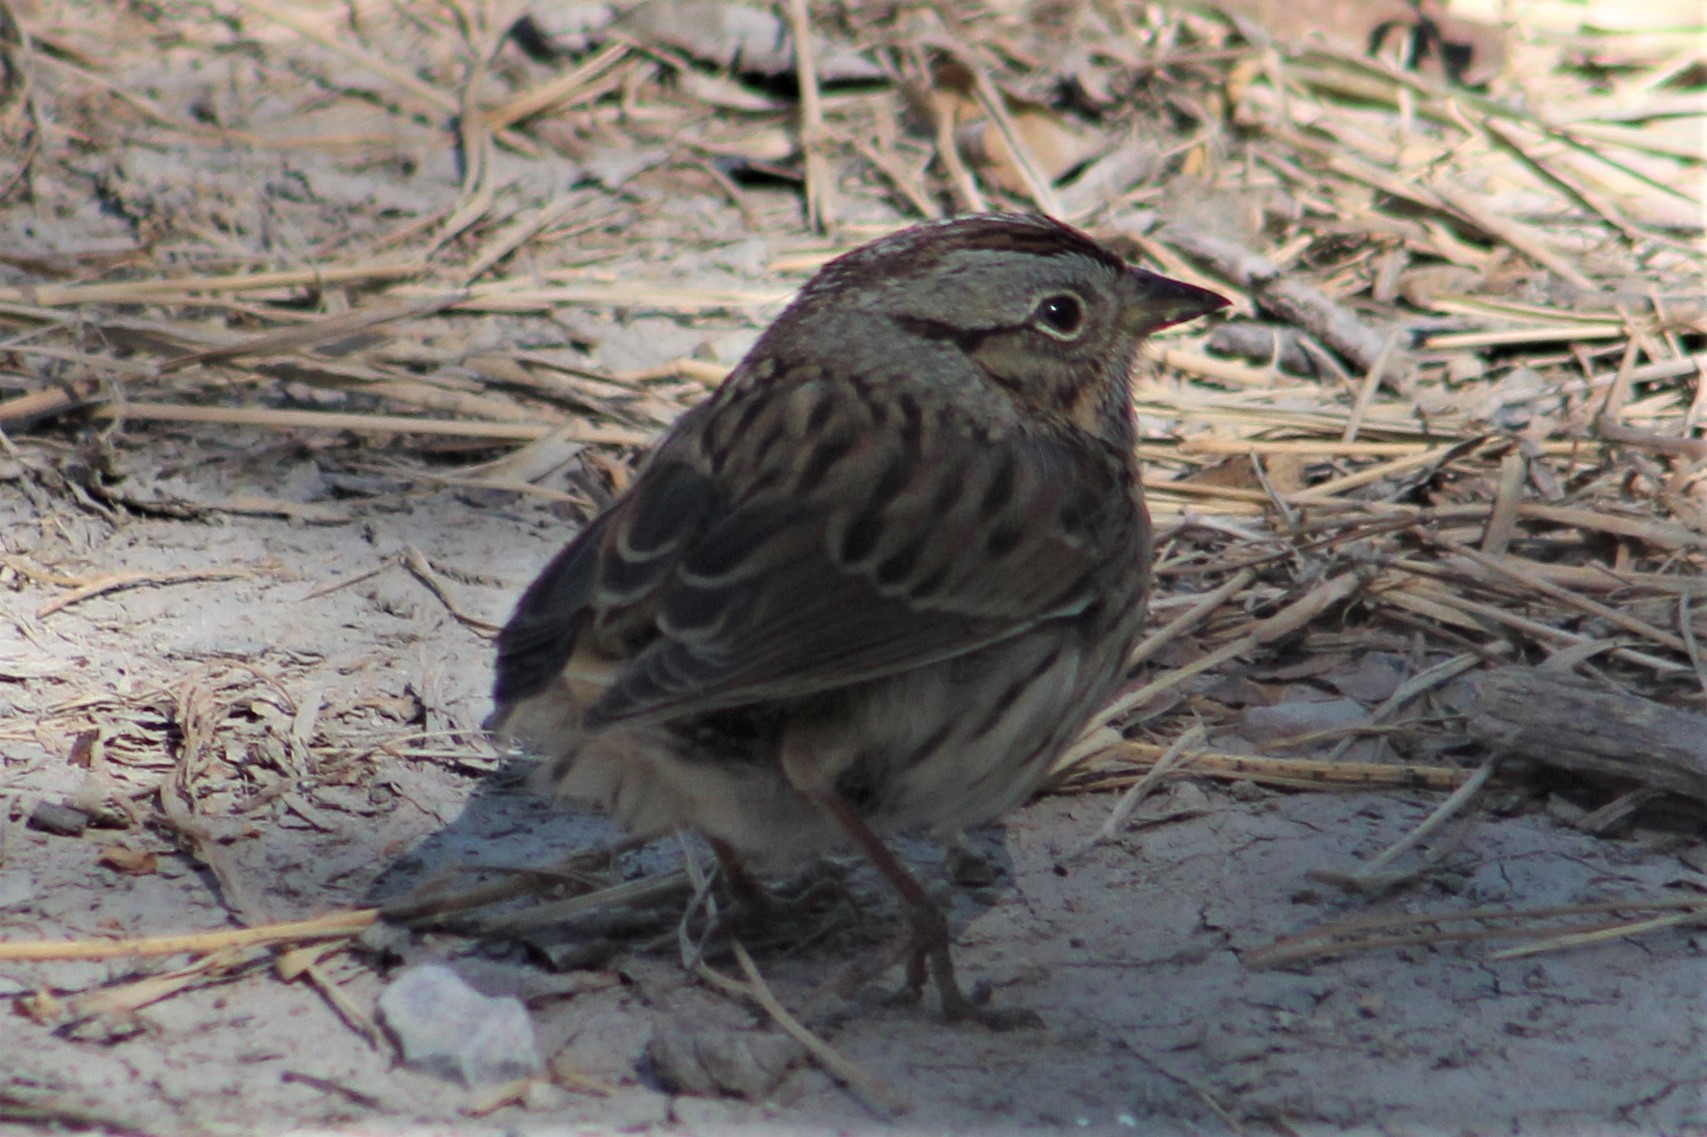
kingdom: Animalia
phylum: Chordata
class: Aves
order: Passeriformes
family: Passerellidae
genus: Melospiza
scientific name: Melospiza lincolnii
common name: Lincoln's sparrow
